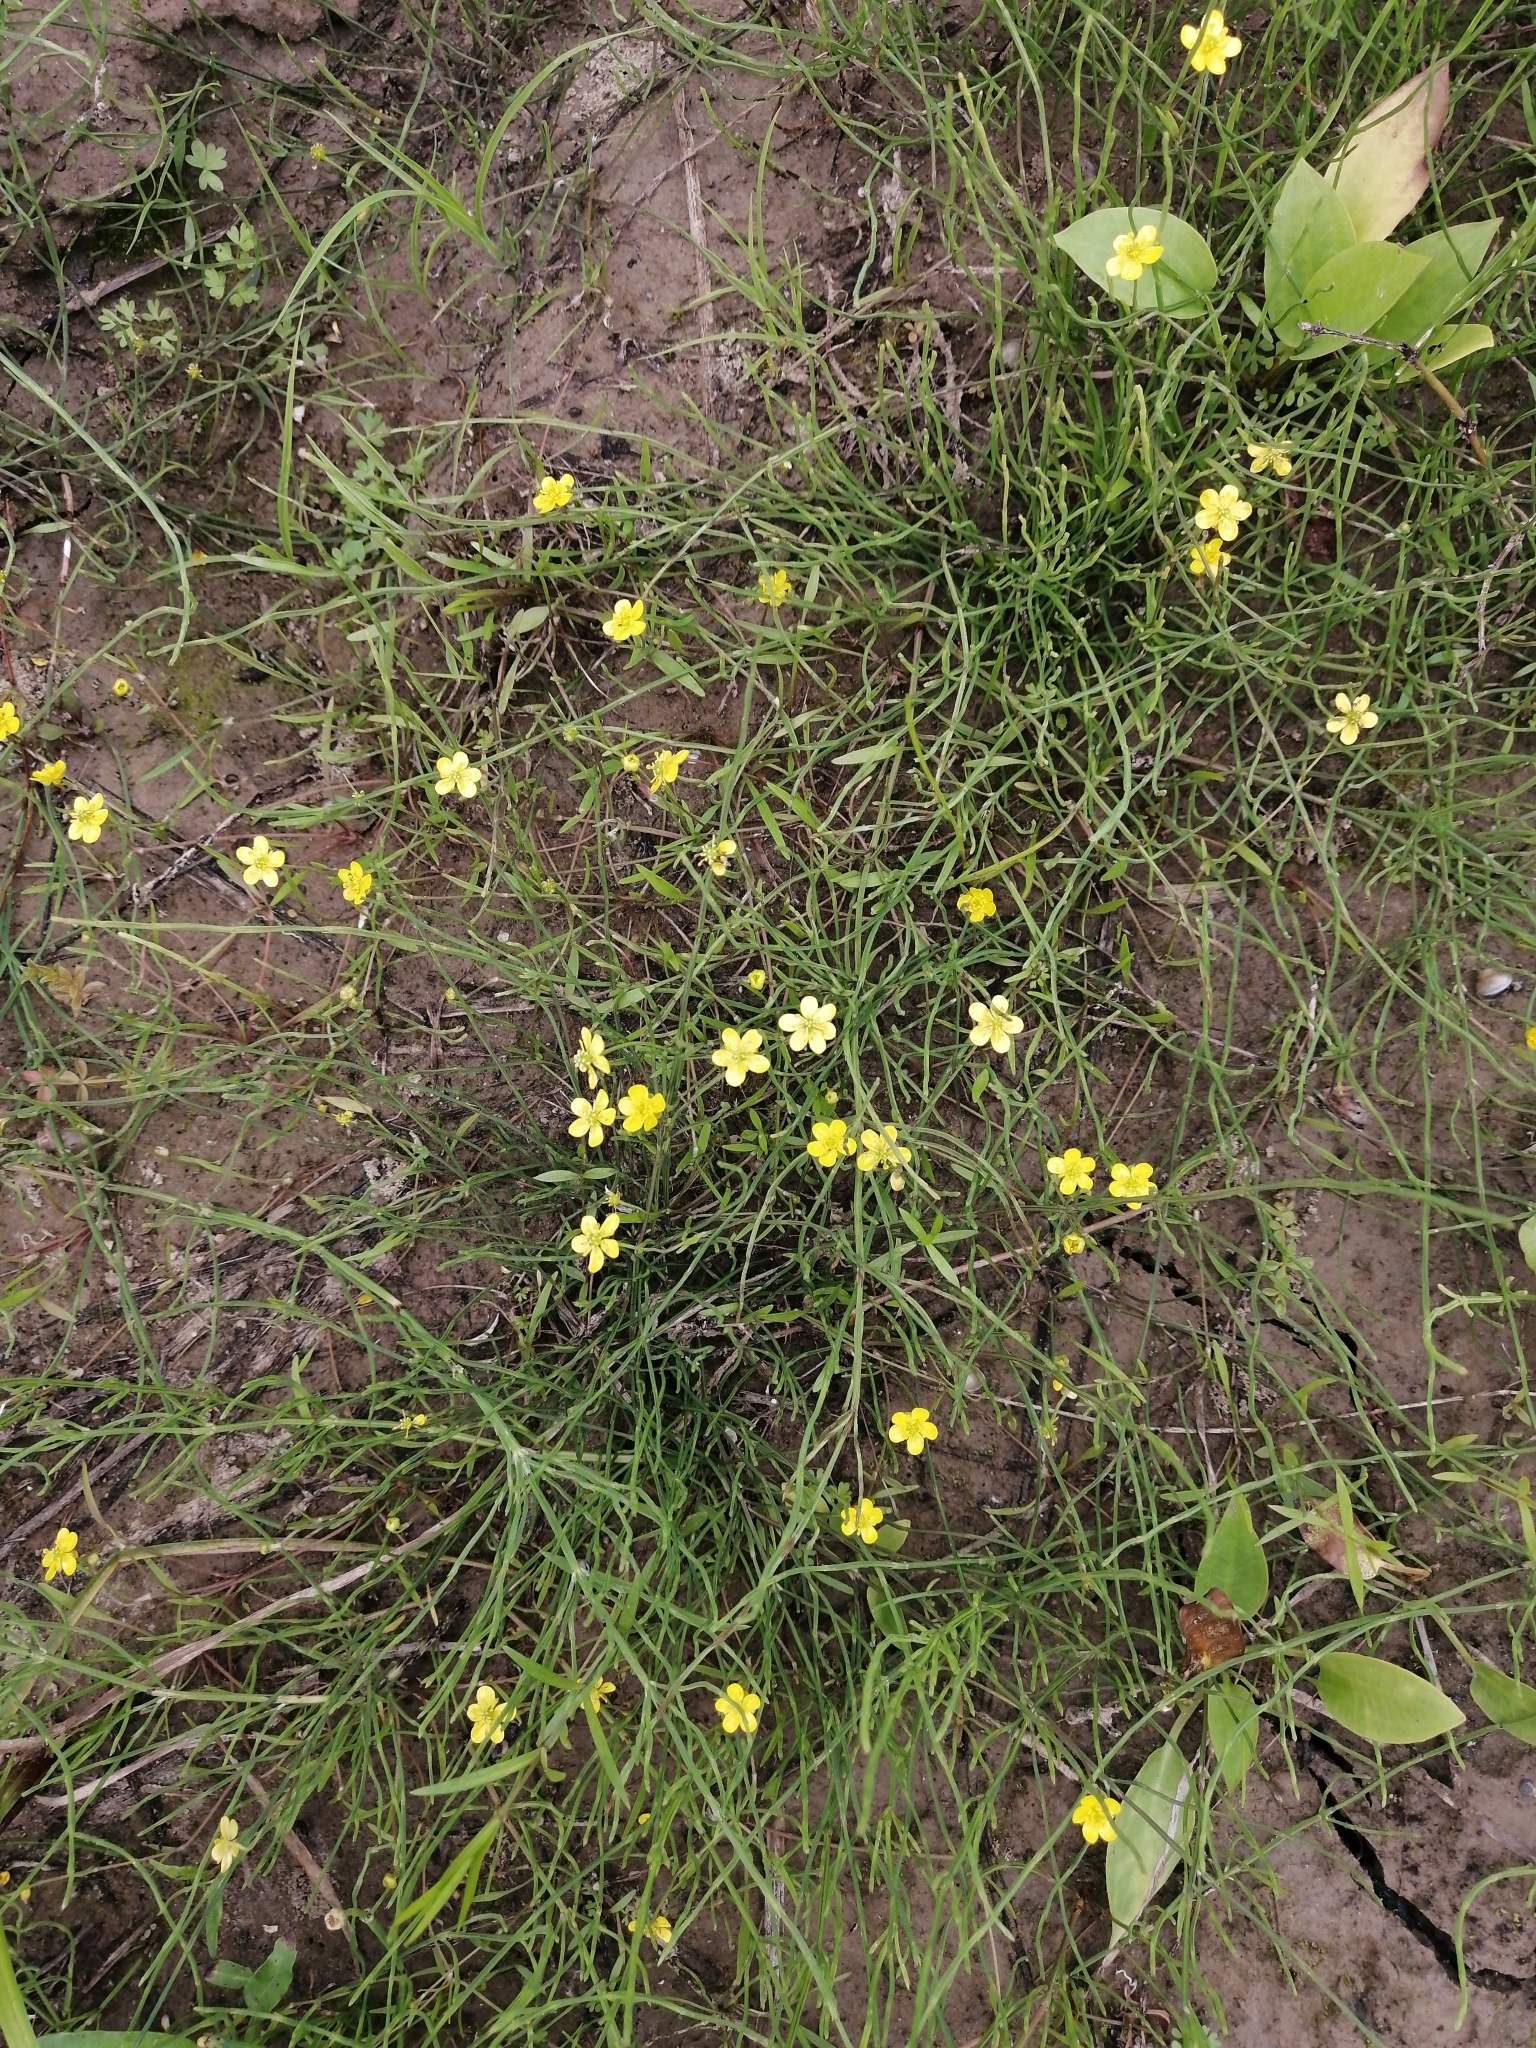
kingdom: Plantae
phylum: Tracheophyta
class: Magnoliopsida
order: Ranunculales
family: Ranunculaceae
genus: Ranunculus
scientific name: Ranunculus reptans
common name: Creeping spearwort
